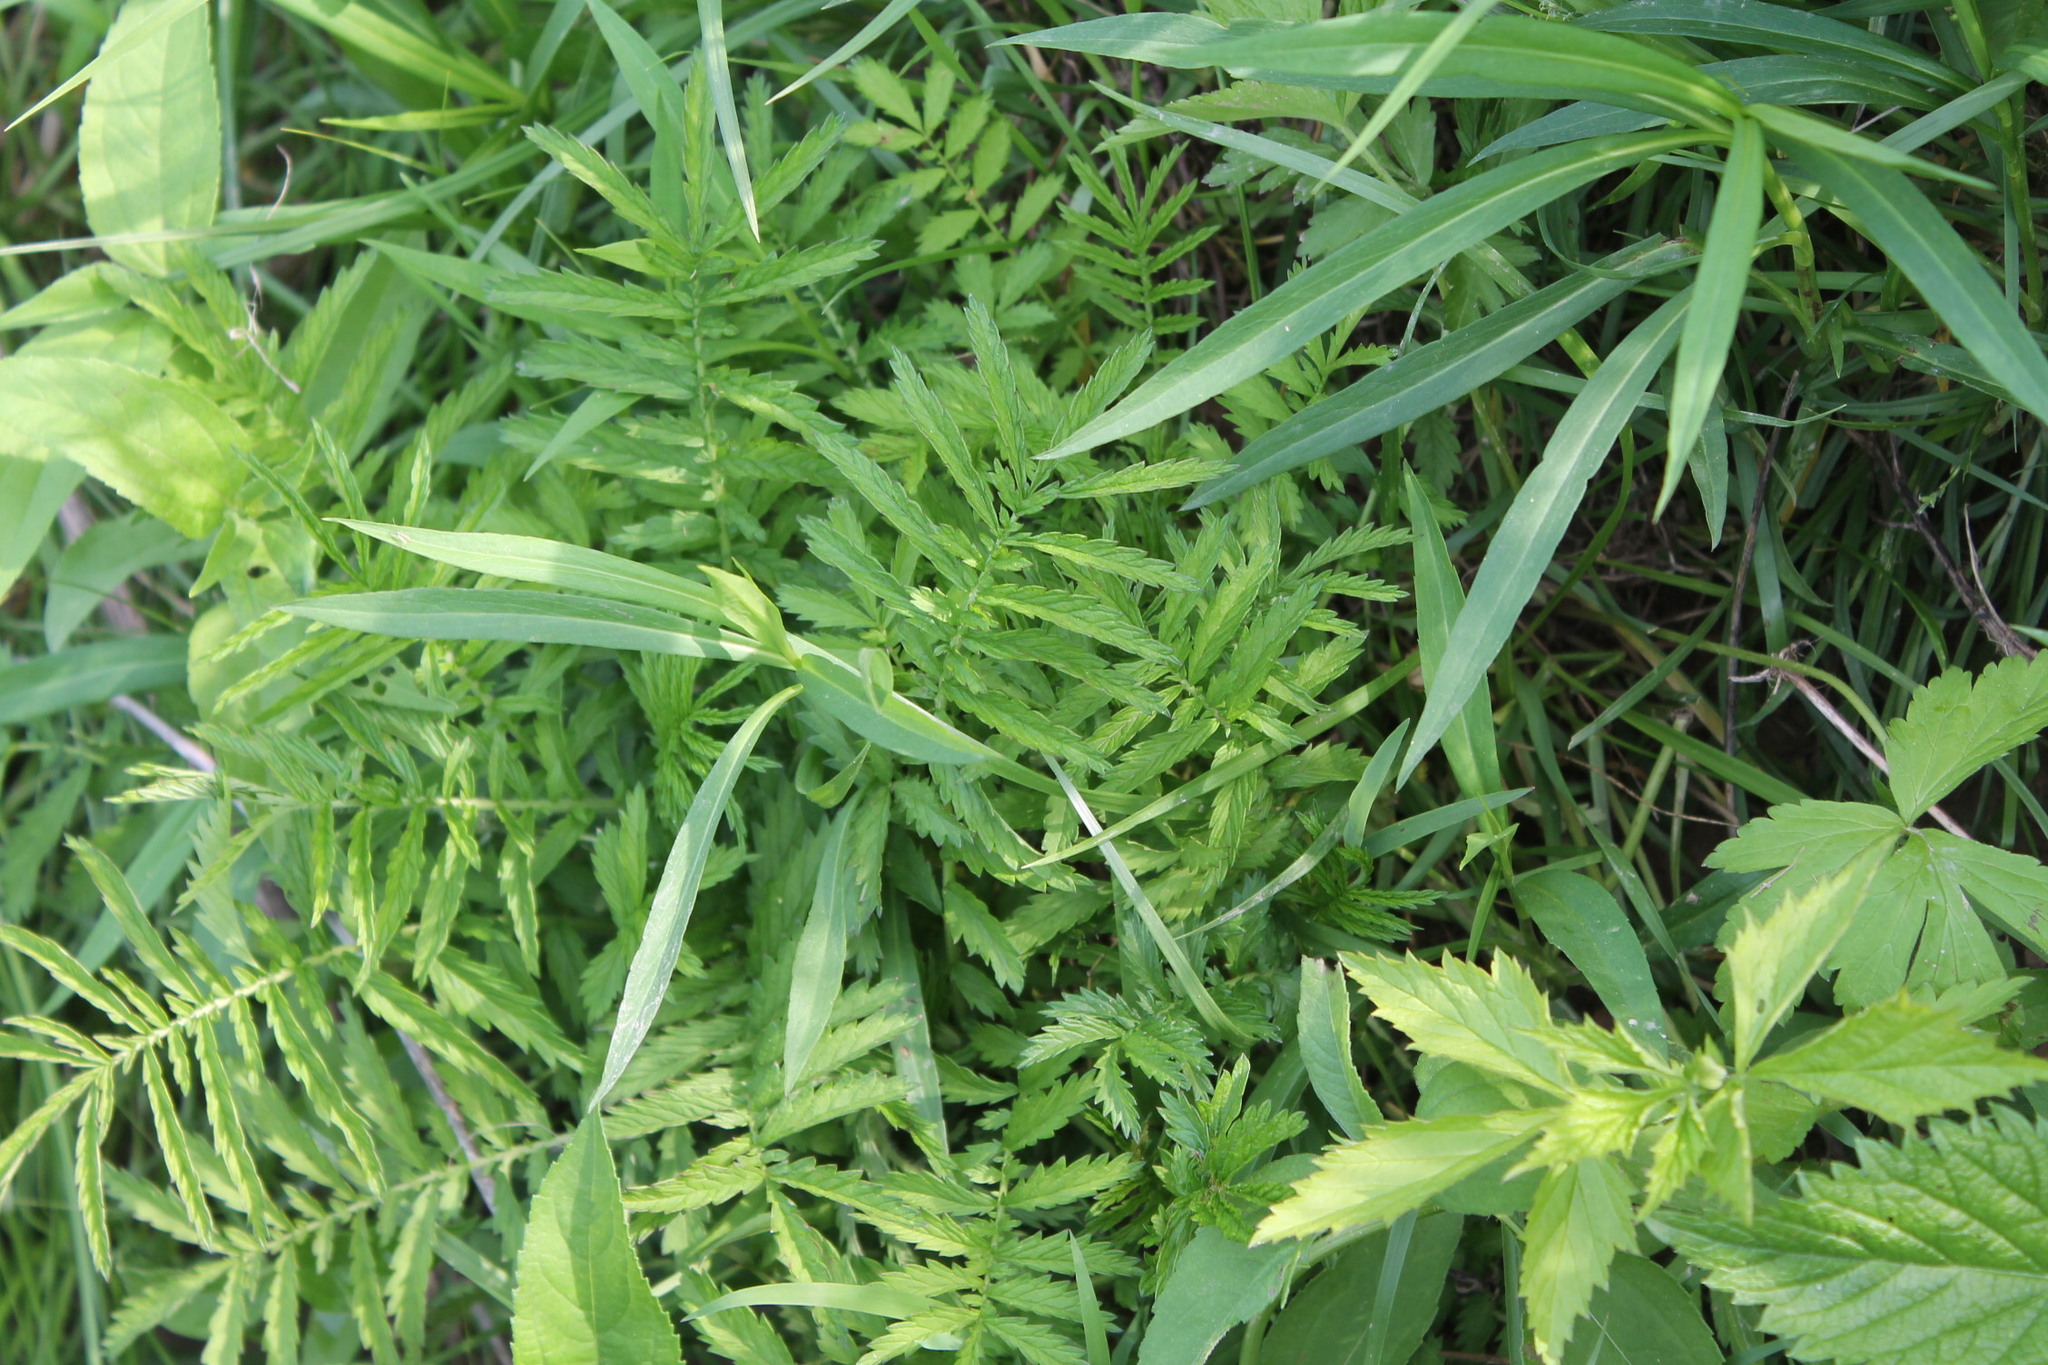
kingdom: Plantae
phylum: Tracheophyta
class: Magnoliopsida
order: Rosales
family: Rosaceae
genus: Agrimonia
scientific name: Agrimonia parviflora
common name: Harvest-lice
